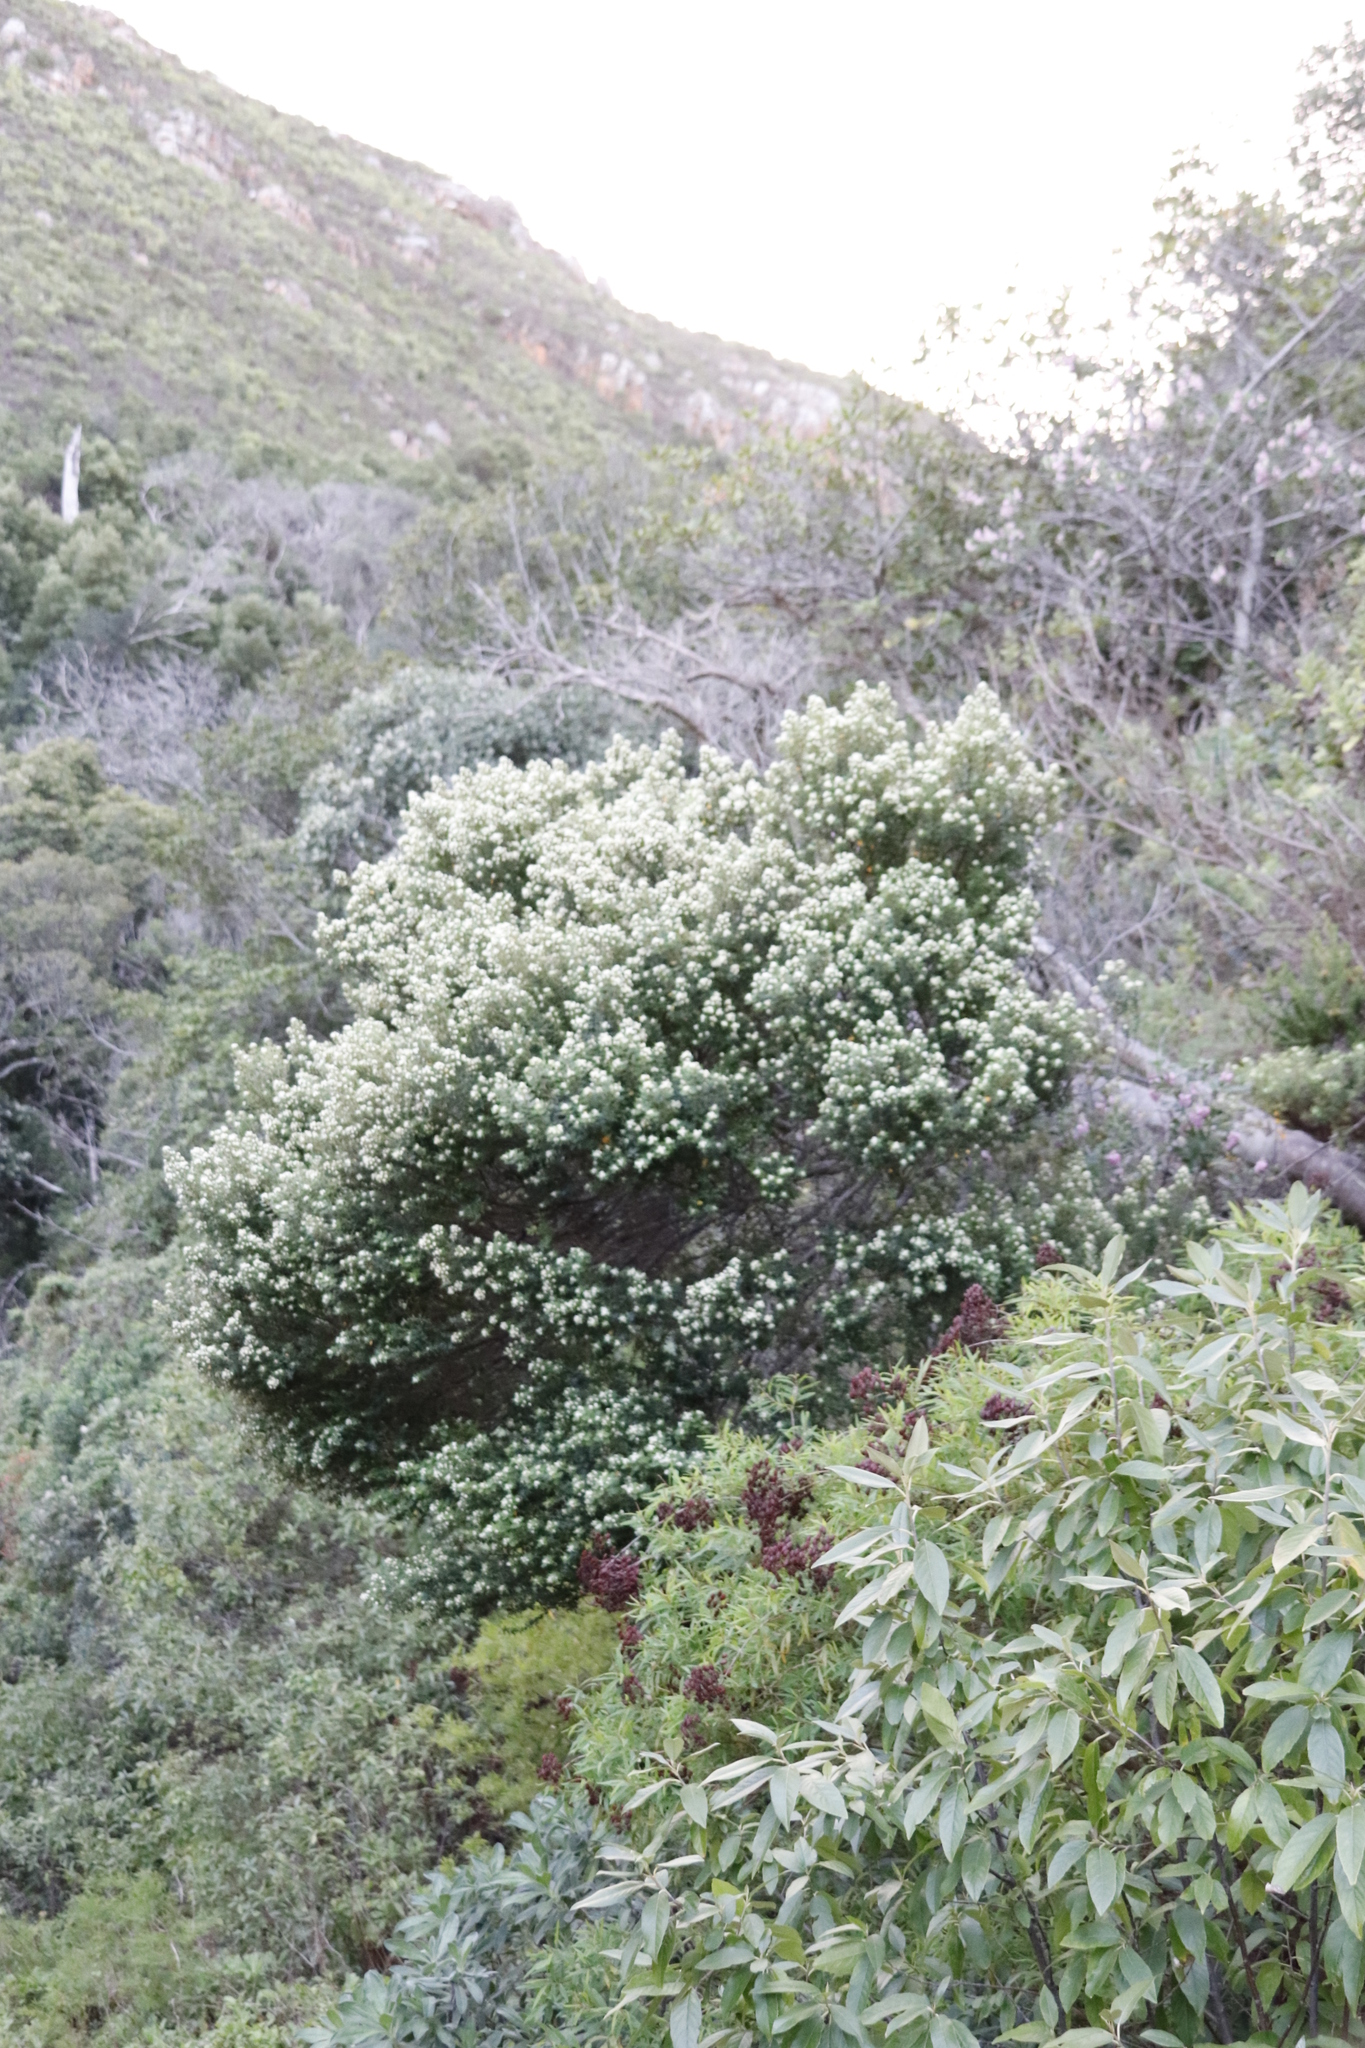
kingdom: Plantae
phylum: Tracheophyta
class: Magnoliopsida
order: Rosales
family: Rhamnaceae
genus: Phylica
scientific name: Phylica buxifolia
